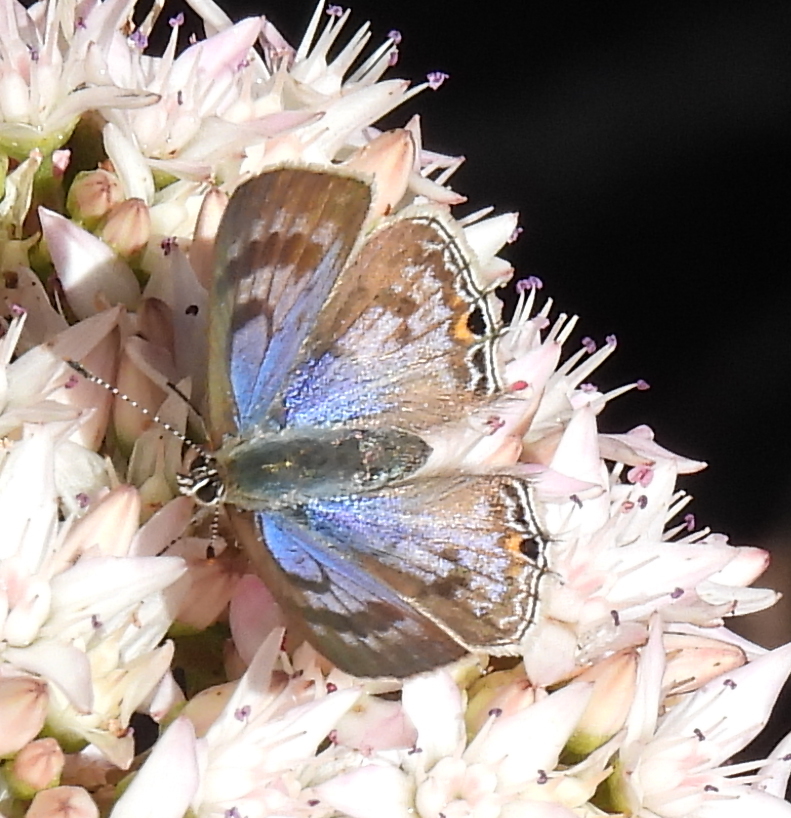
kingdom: Animalia
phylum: Arthropoda
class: Insecta
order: Lepidoptera
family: Lycaenidae
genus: Anthene
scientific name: Anthene definita
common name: Common ciliate blue
